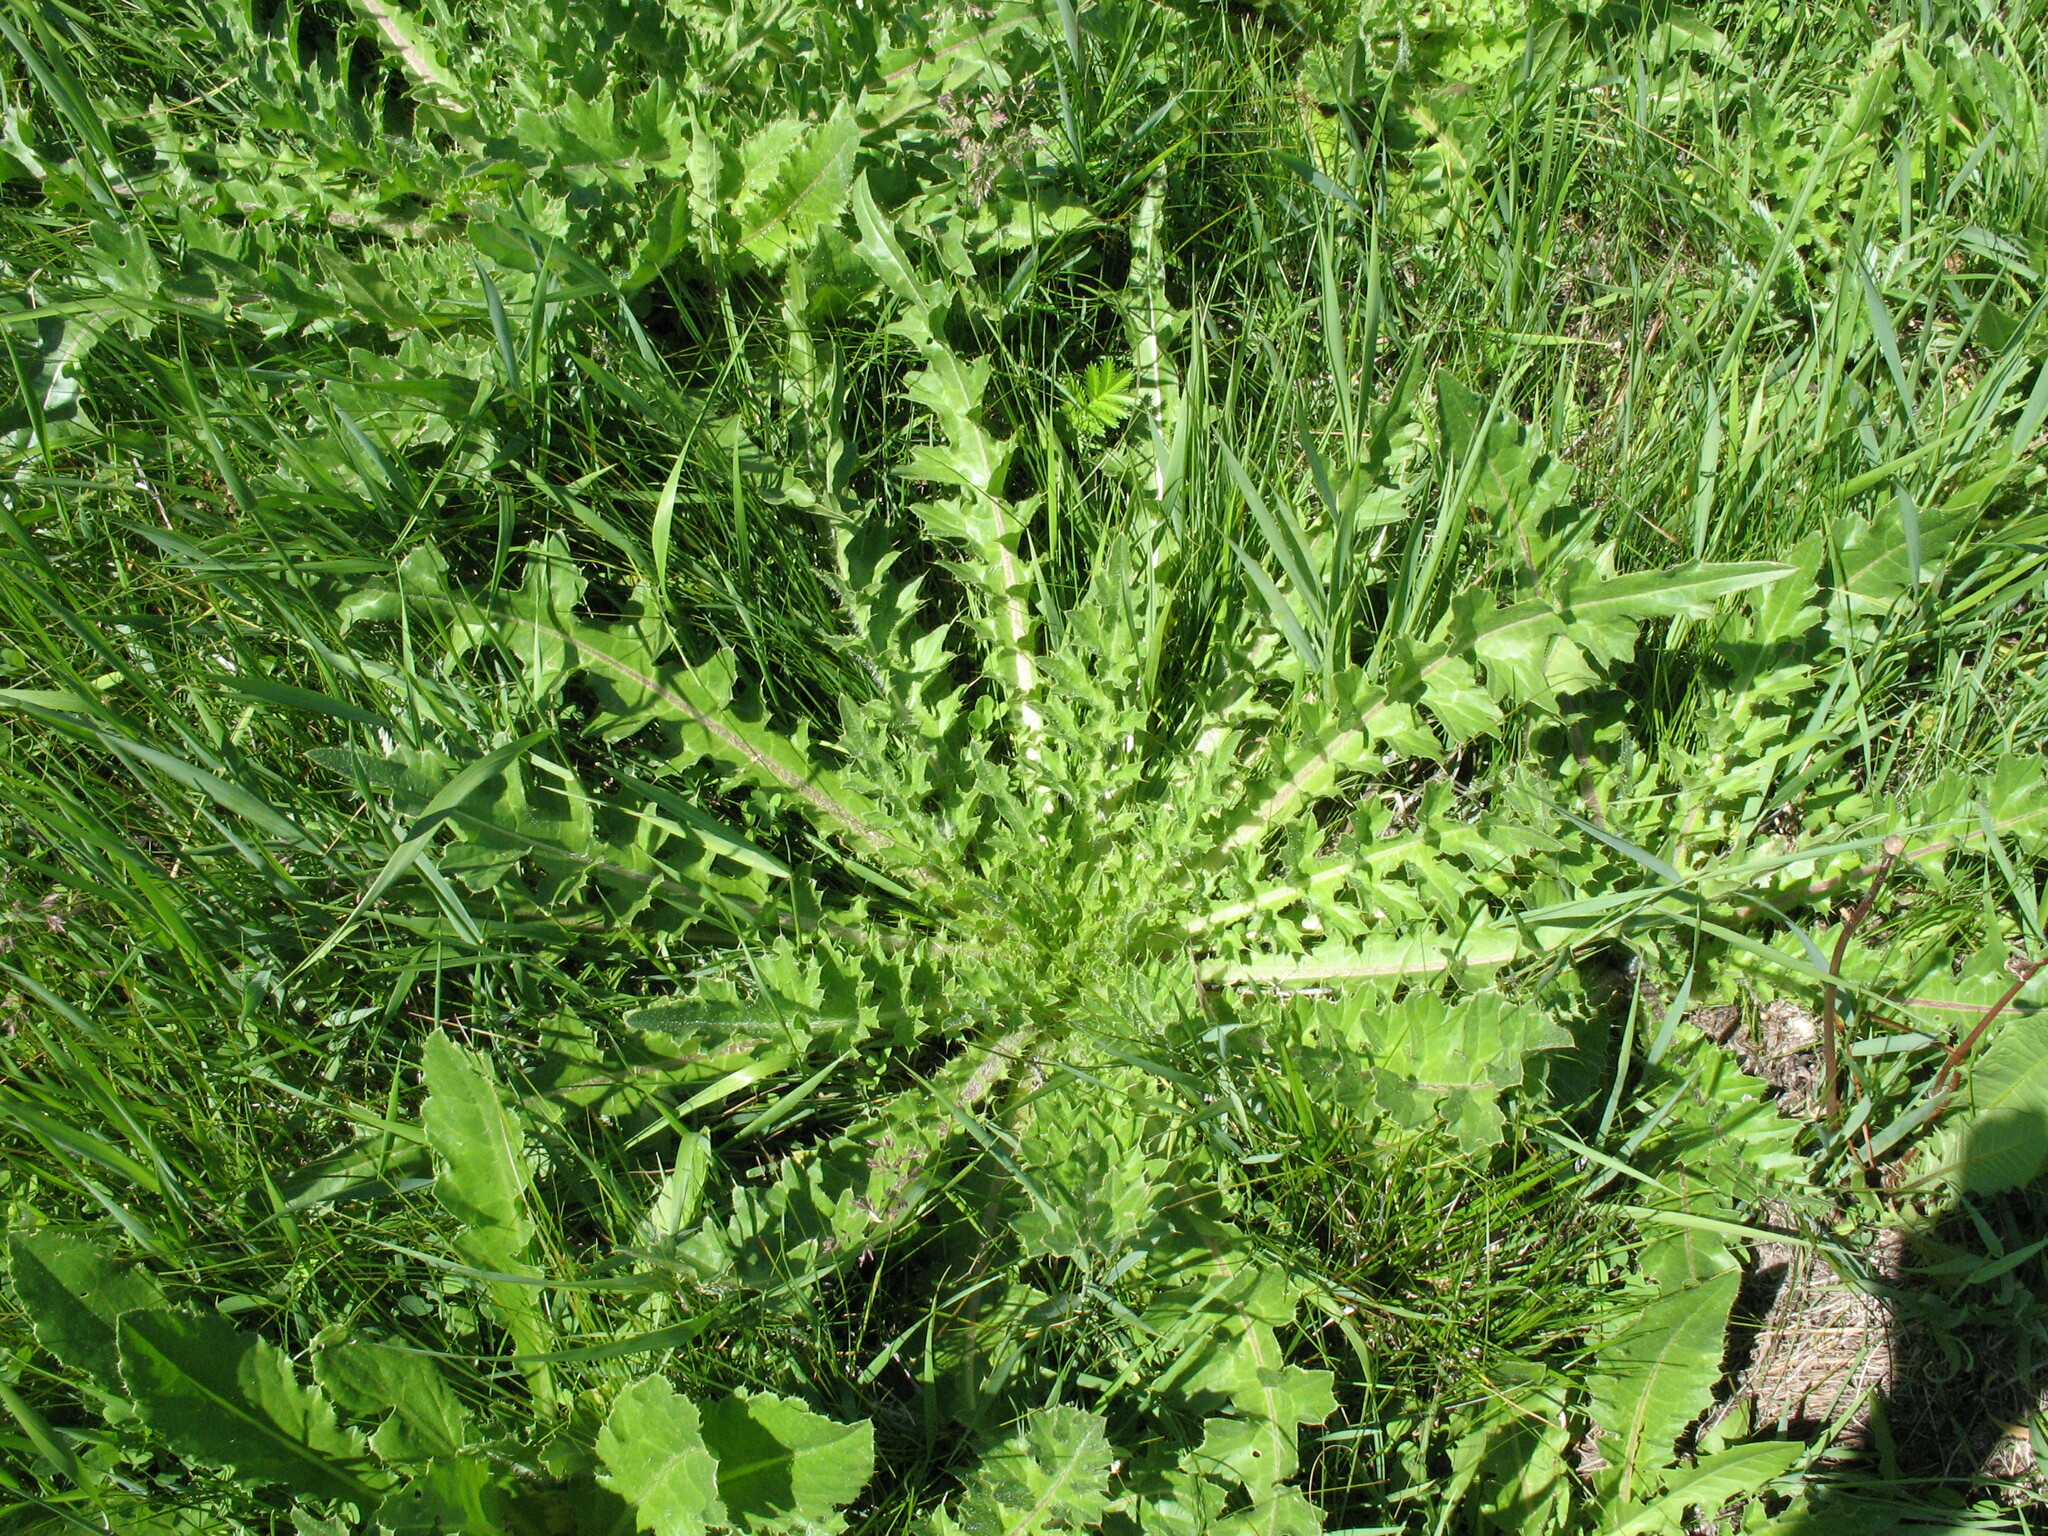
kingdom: Plantae
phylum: Tracheophyta
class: Magnoliopsida
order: Asterales
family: Asteraceae
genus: Cirsium
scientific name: Cirsium esculentum
